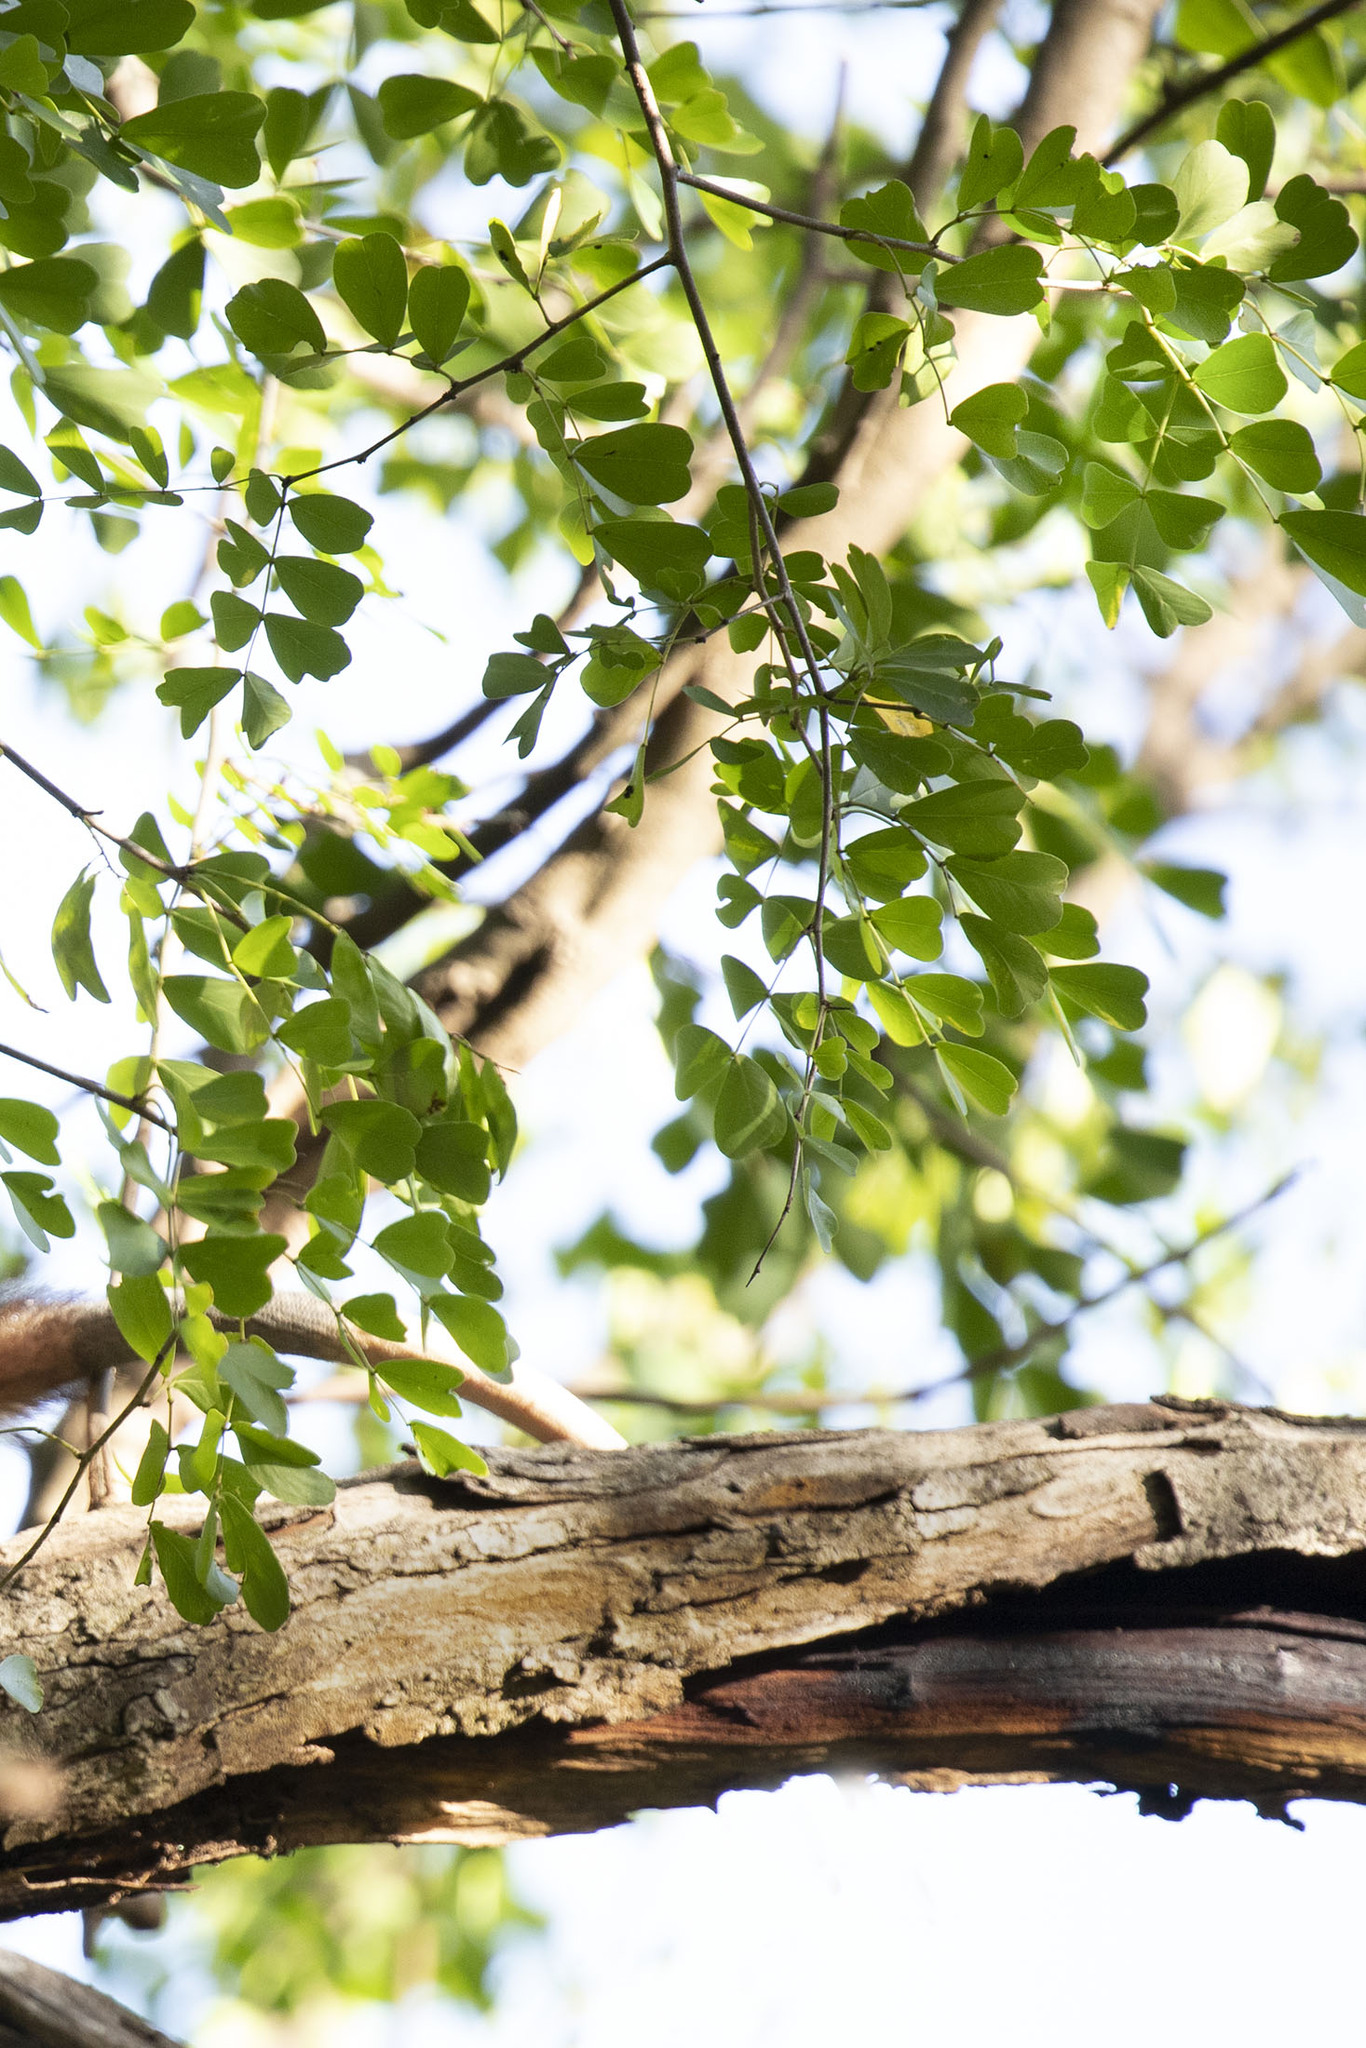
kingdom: Plantae
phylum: Tracheophyta
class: Magnoliopsida
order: Fabales
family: Fabaceae
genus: Haematoxylum
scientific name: Haematoxylum campechianum
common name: Logwood
